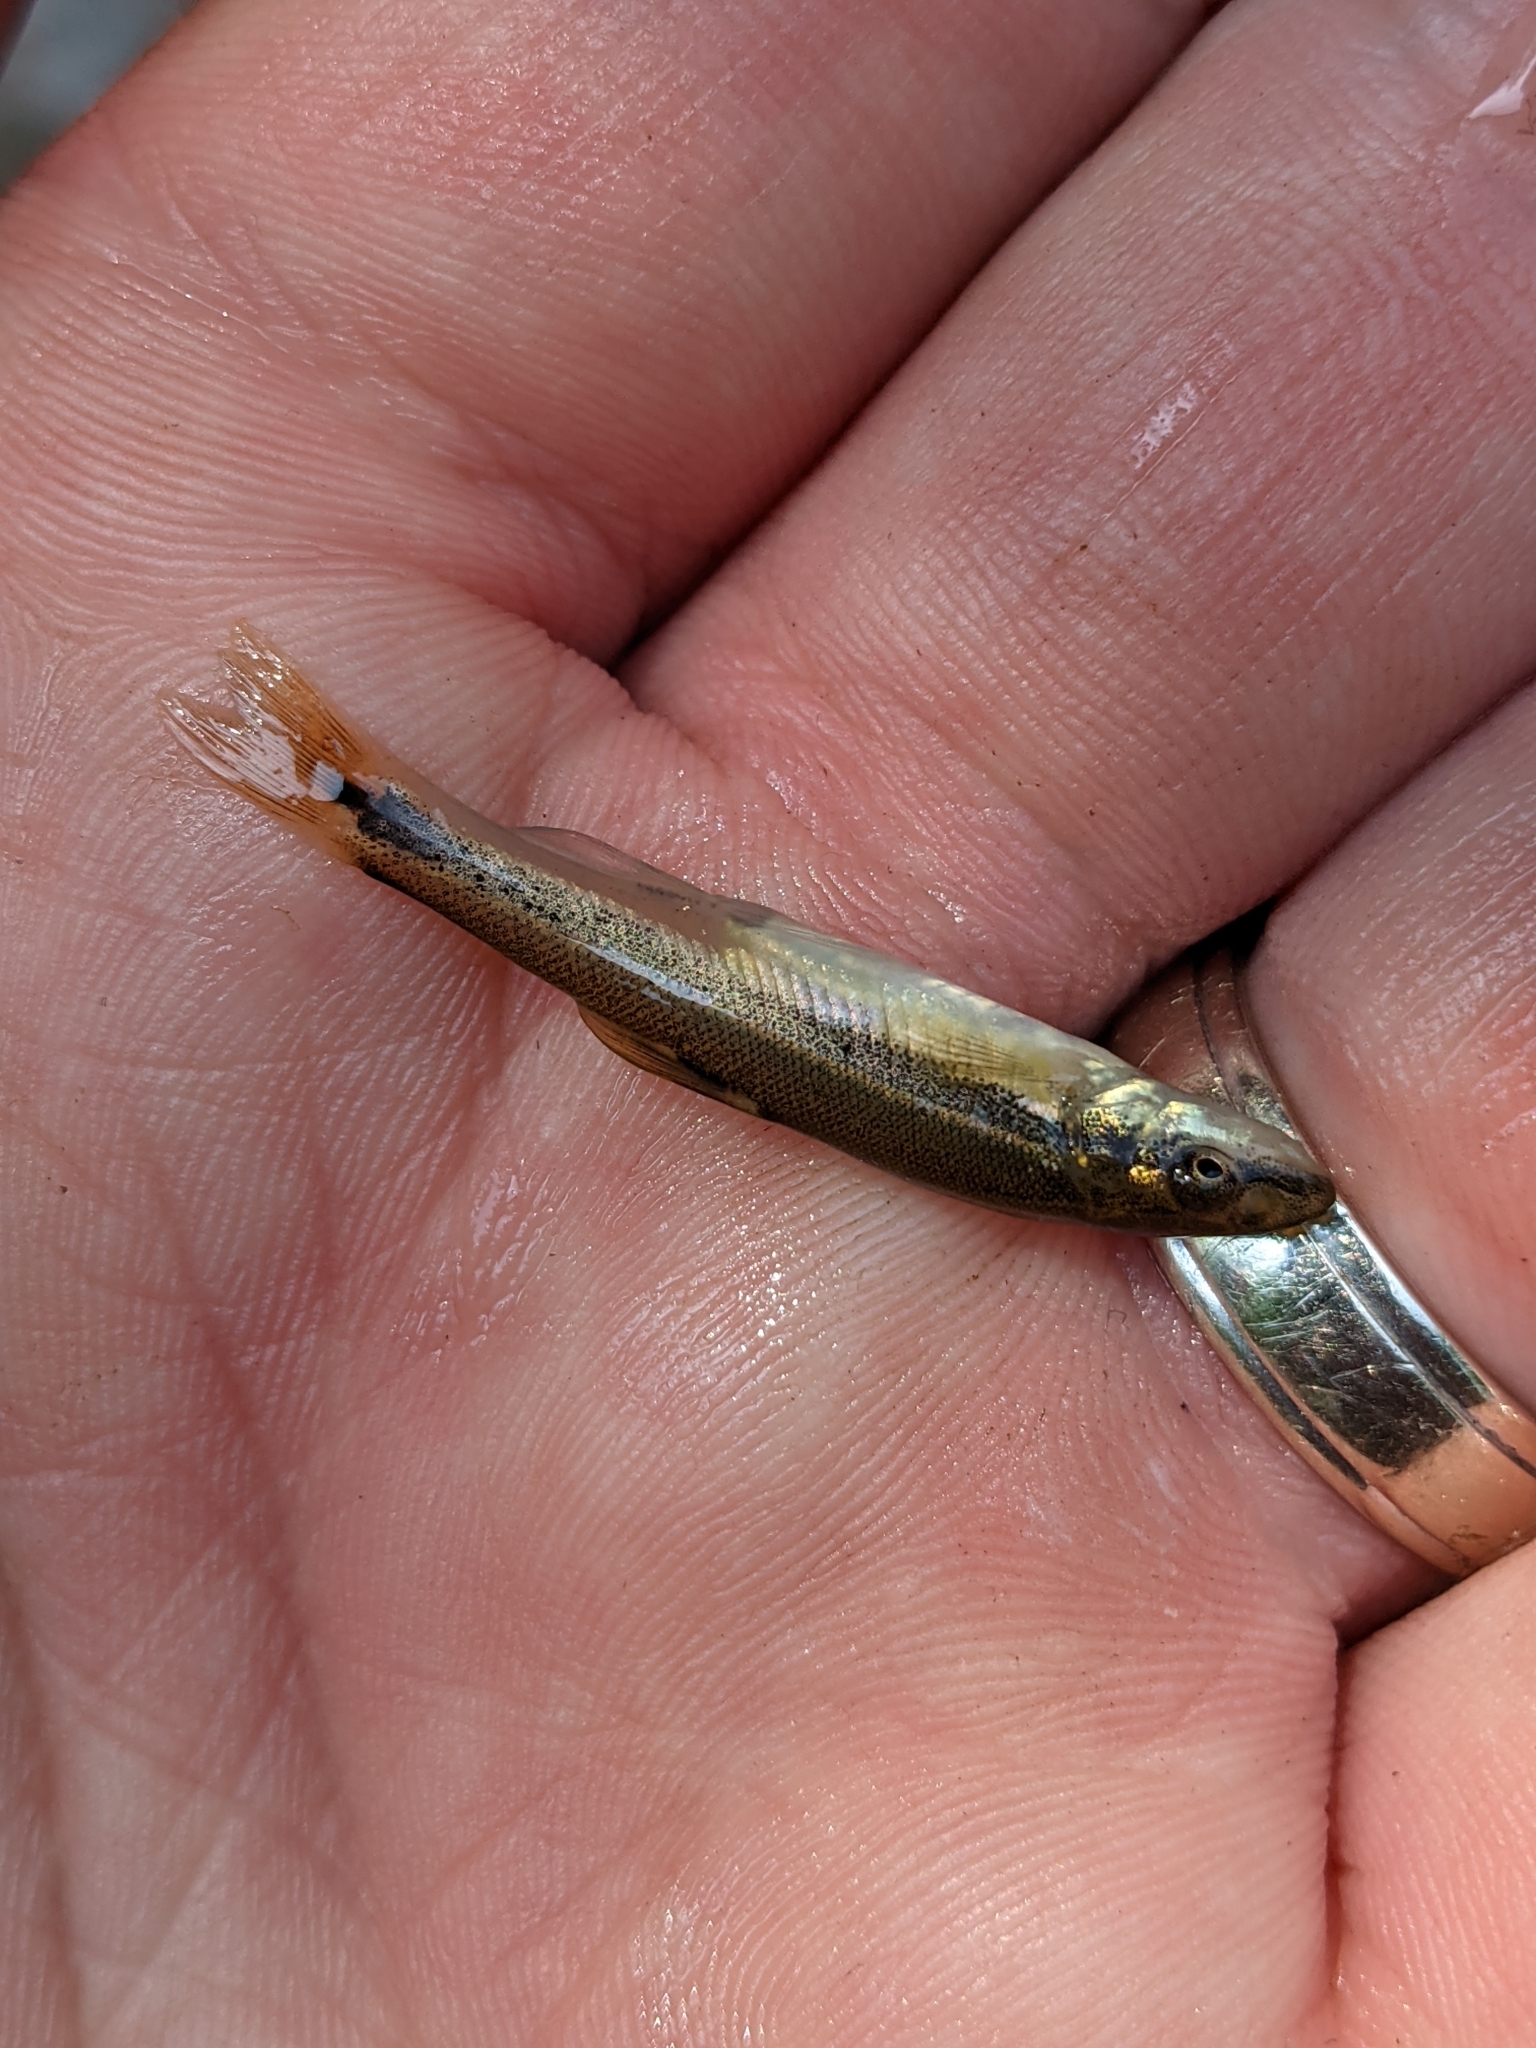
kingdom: Animalia
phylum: Chordata
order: Cypriniformes
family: Cyprinidae
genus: Rhinichthys
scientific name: Rhinichthys cataractae
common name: Longnose dace
